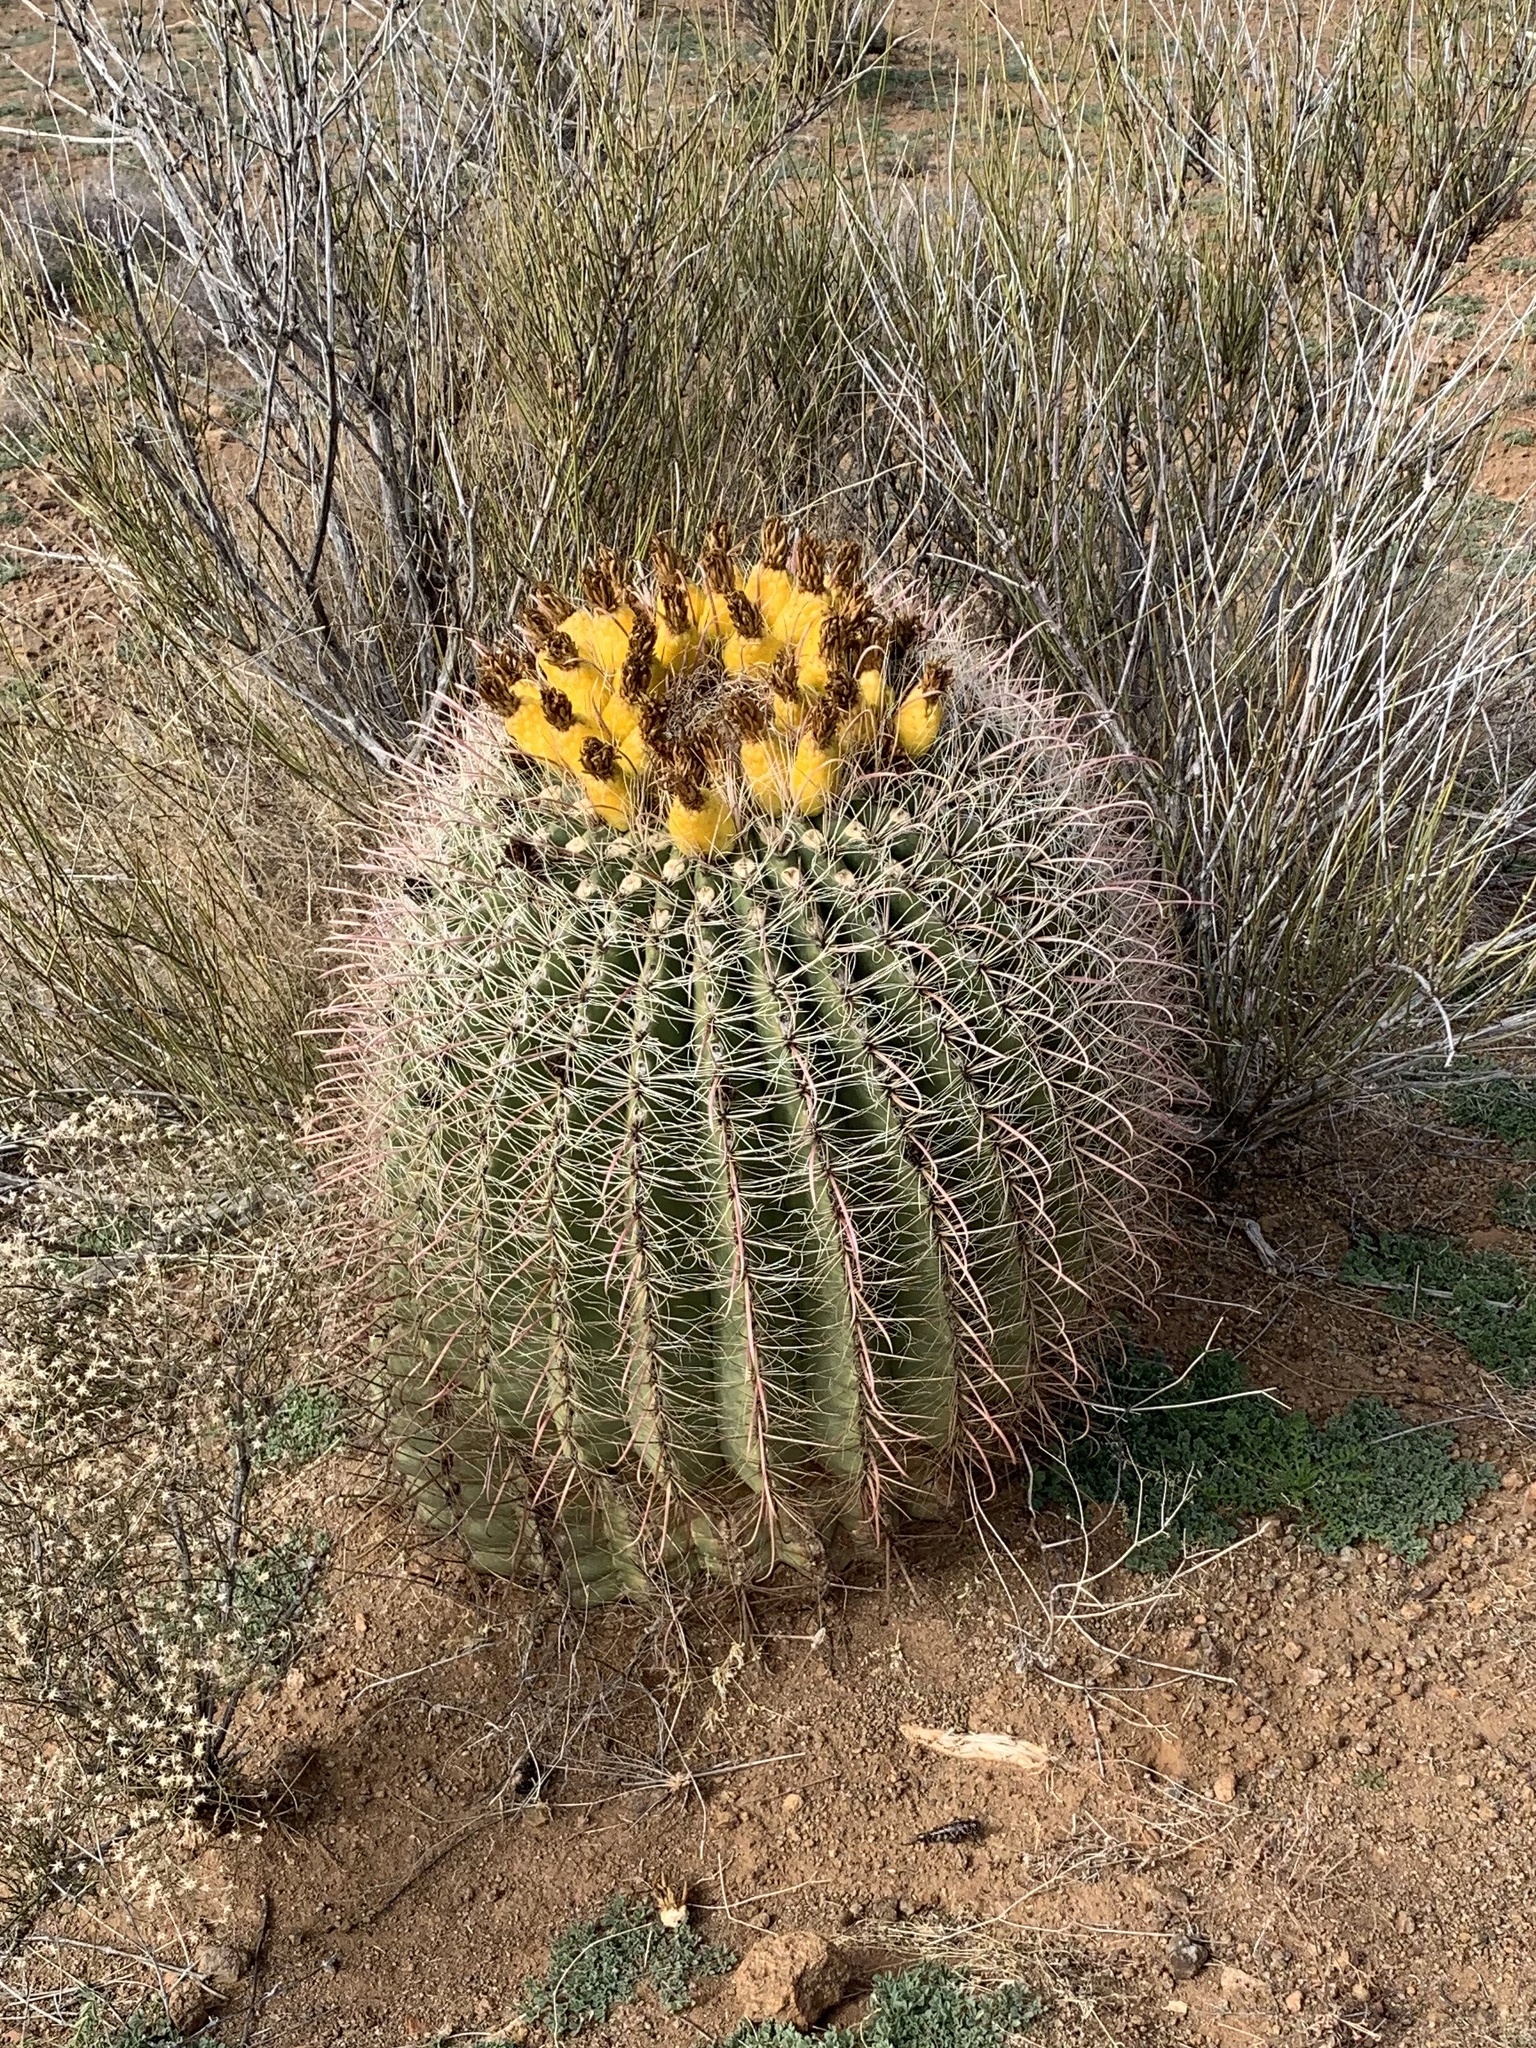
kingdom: Plantae
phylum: Tracheophyta
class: Magnoliopsida
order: Caryophyllales
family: Cactaceae
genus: Ferocactus
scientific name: Ferocactus wislizeni
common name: Candy barrel cactus
